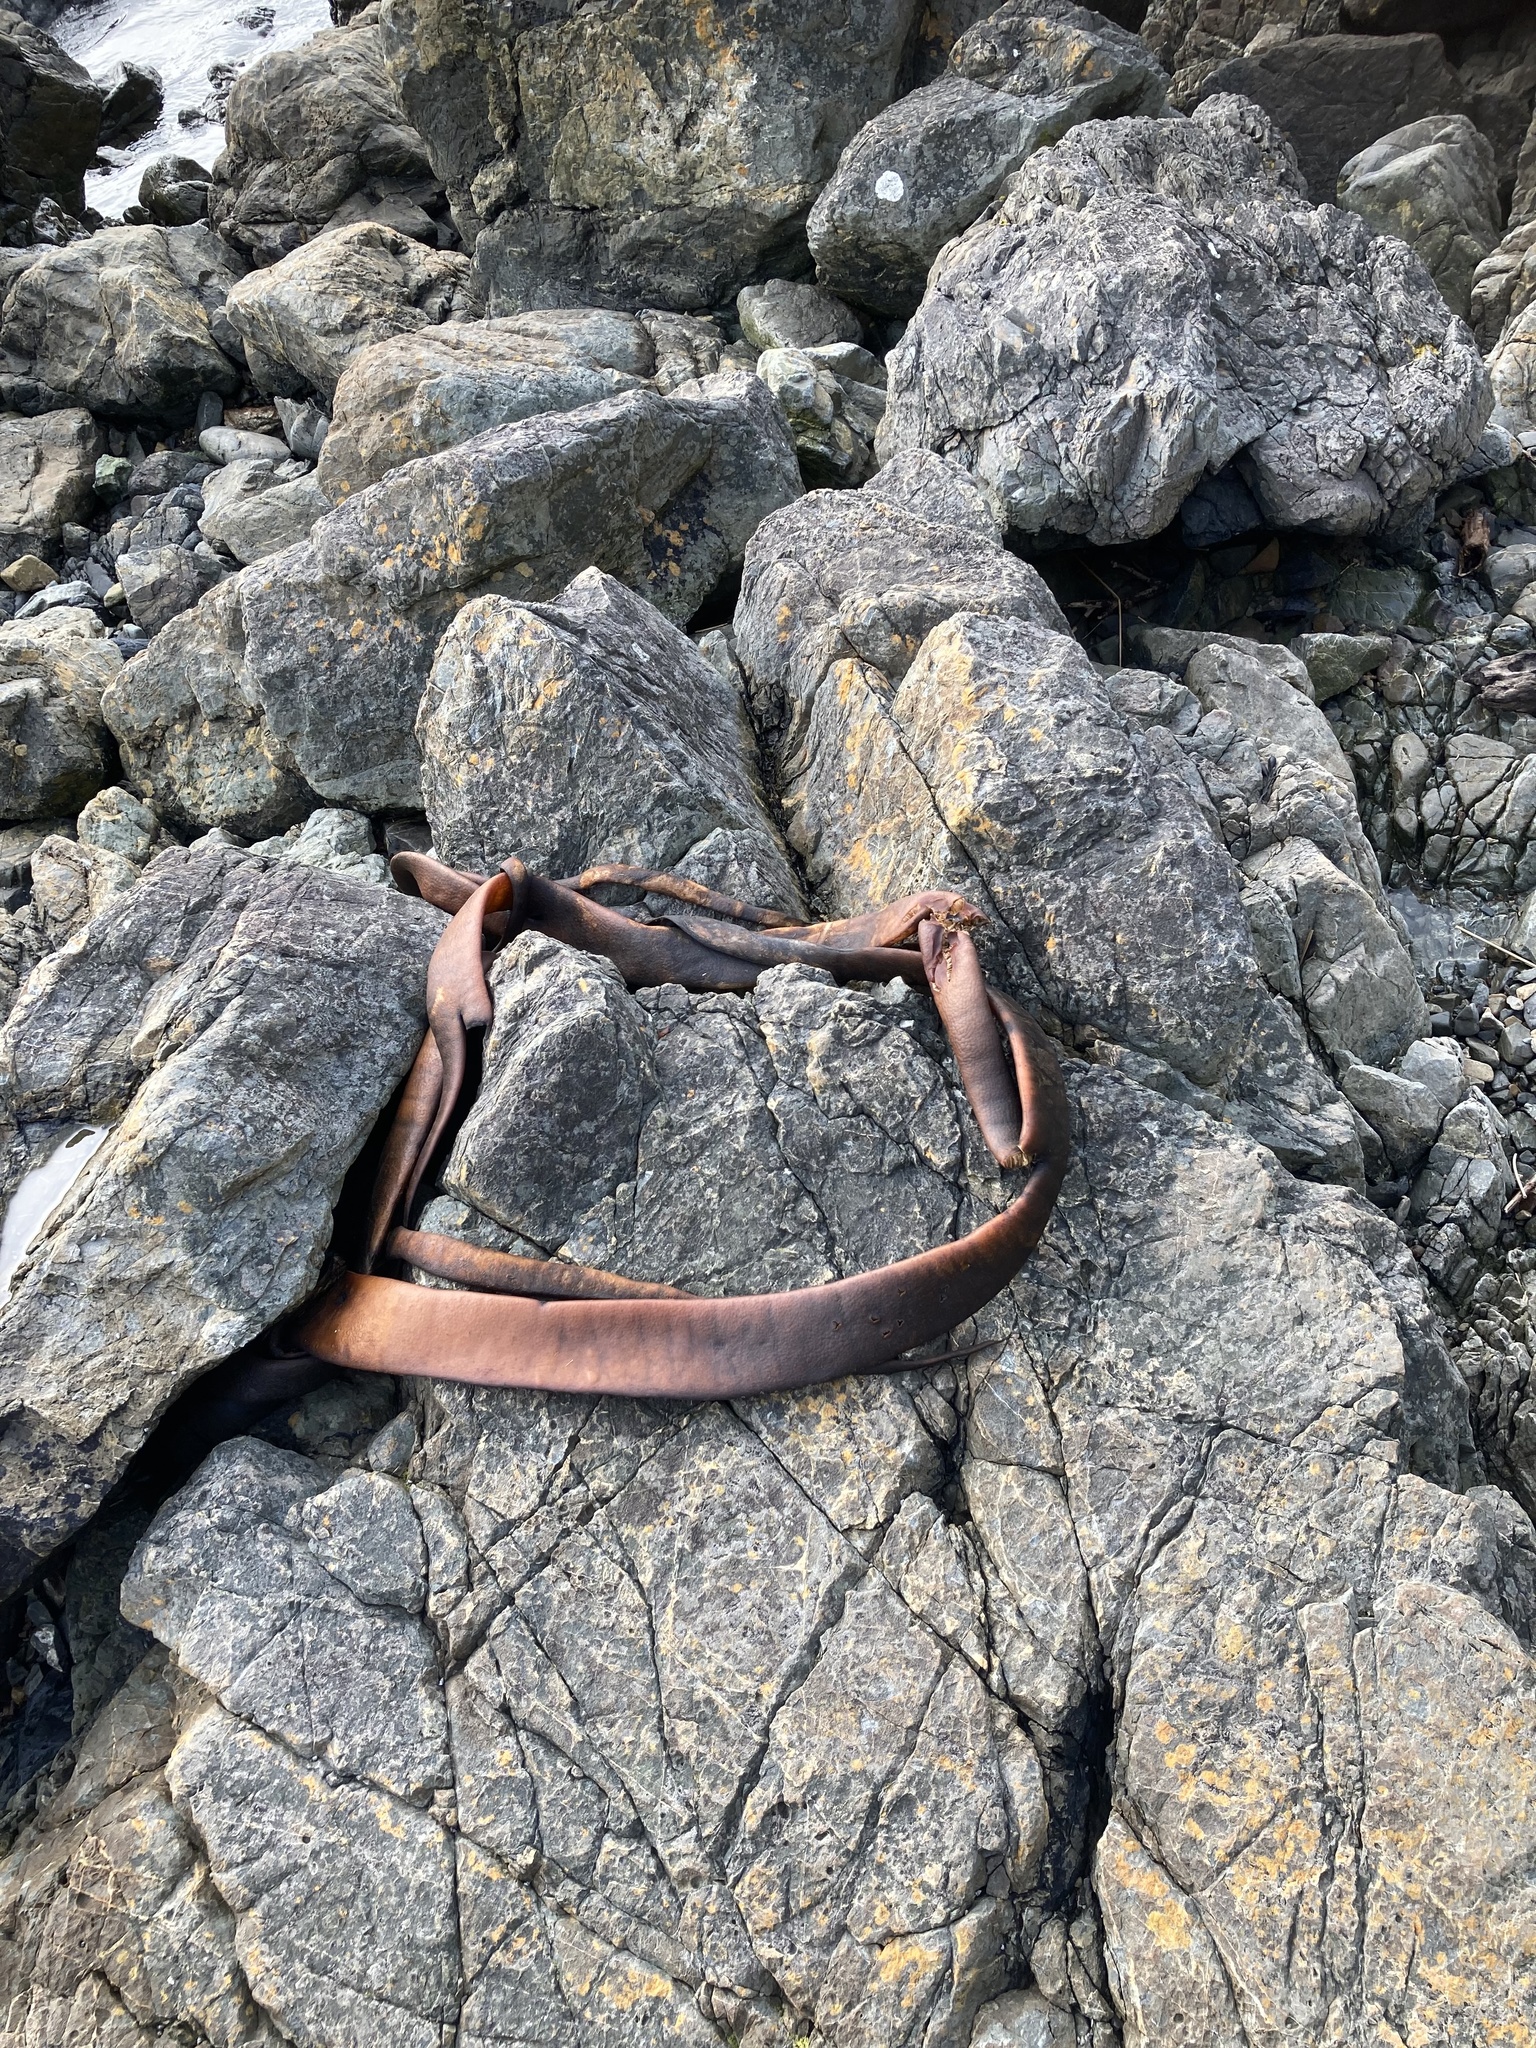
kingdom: Chromista
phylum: Ochrophyta
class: Phaeophyceae
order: Fucales
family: Durvillaeaceae
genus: Durvillaea
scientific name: Durvillaea antarctica
